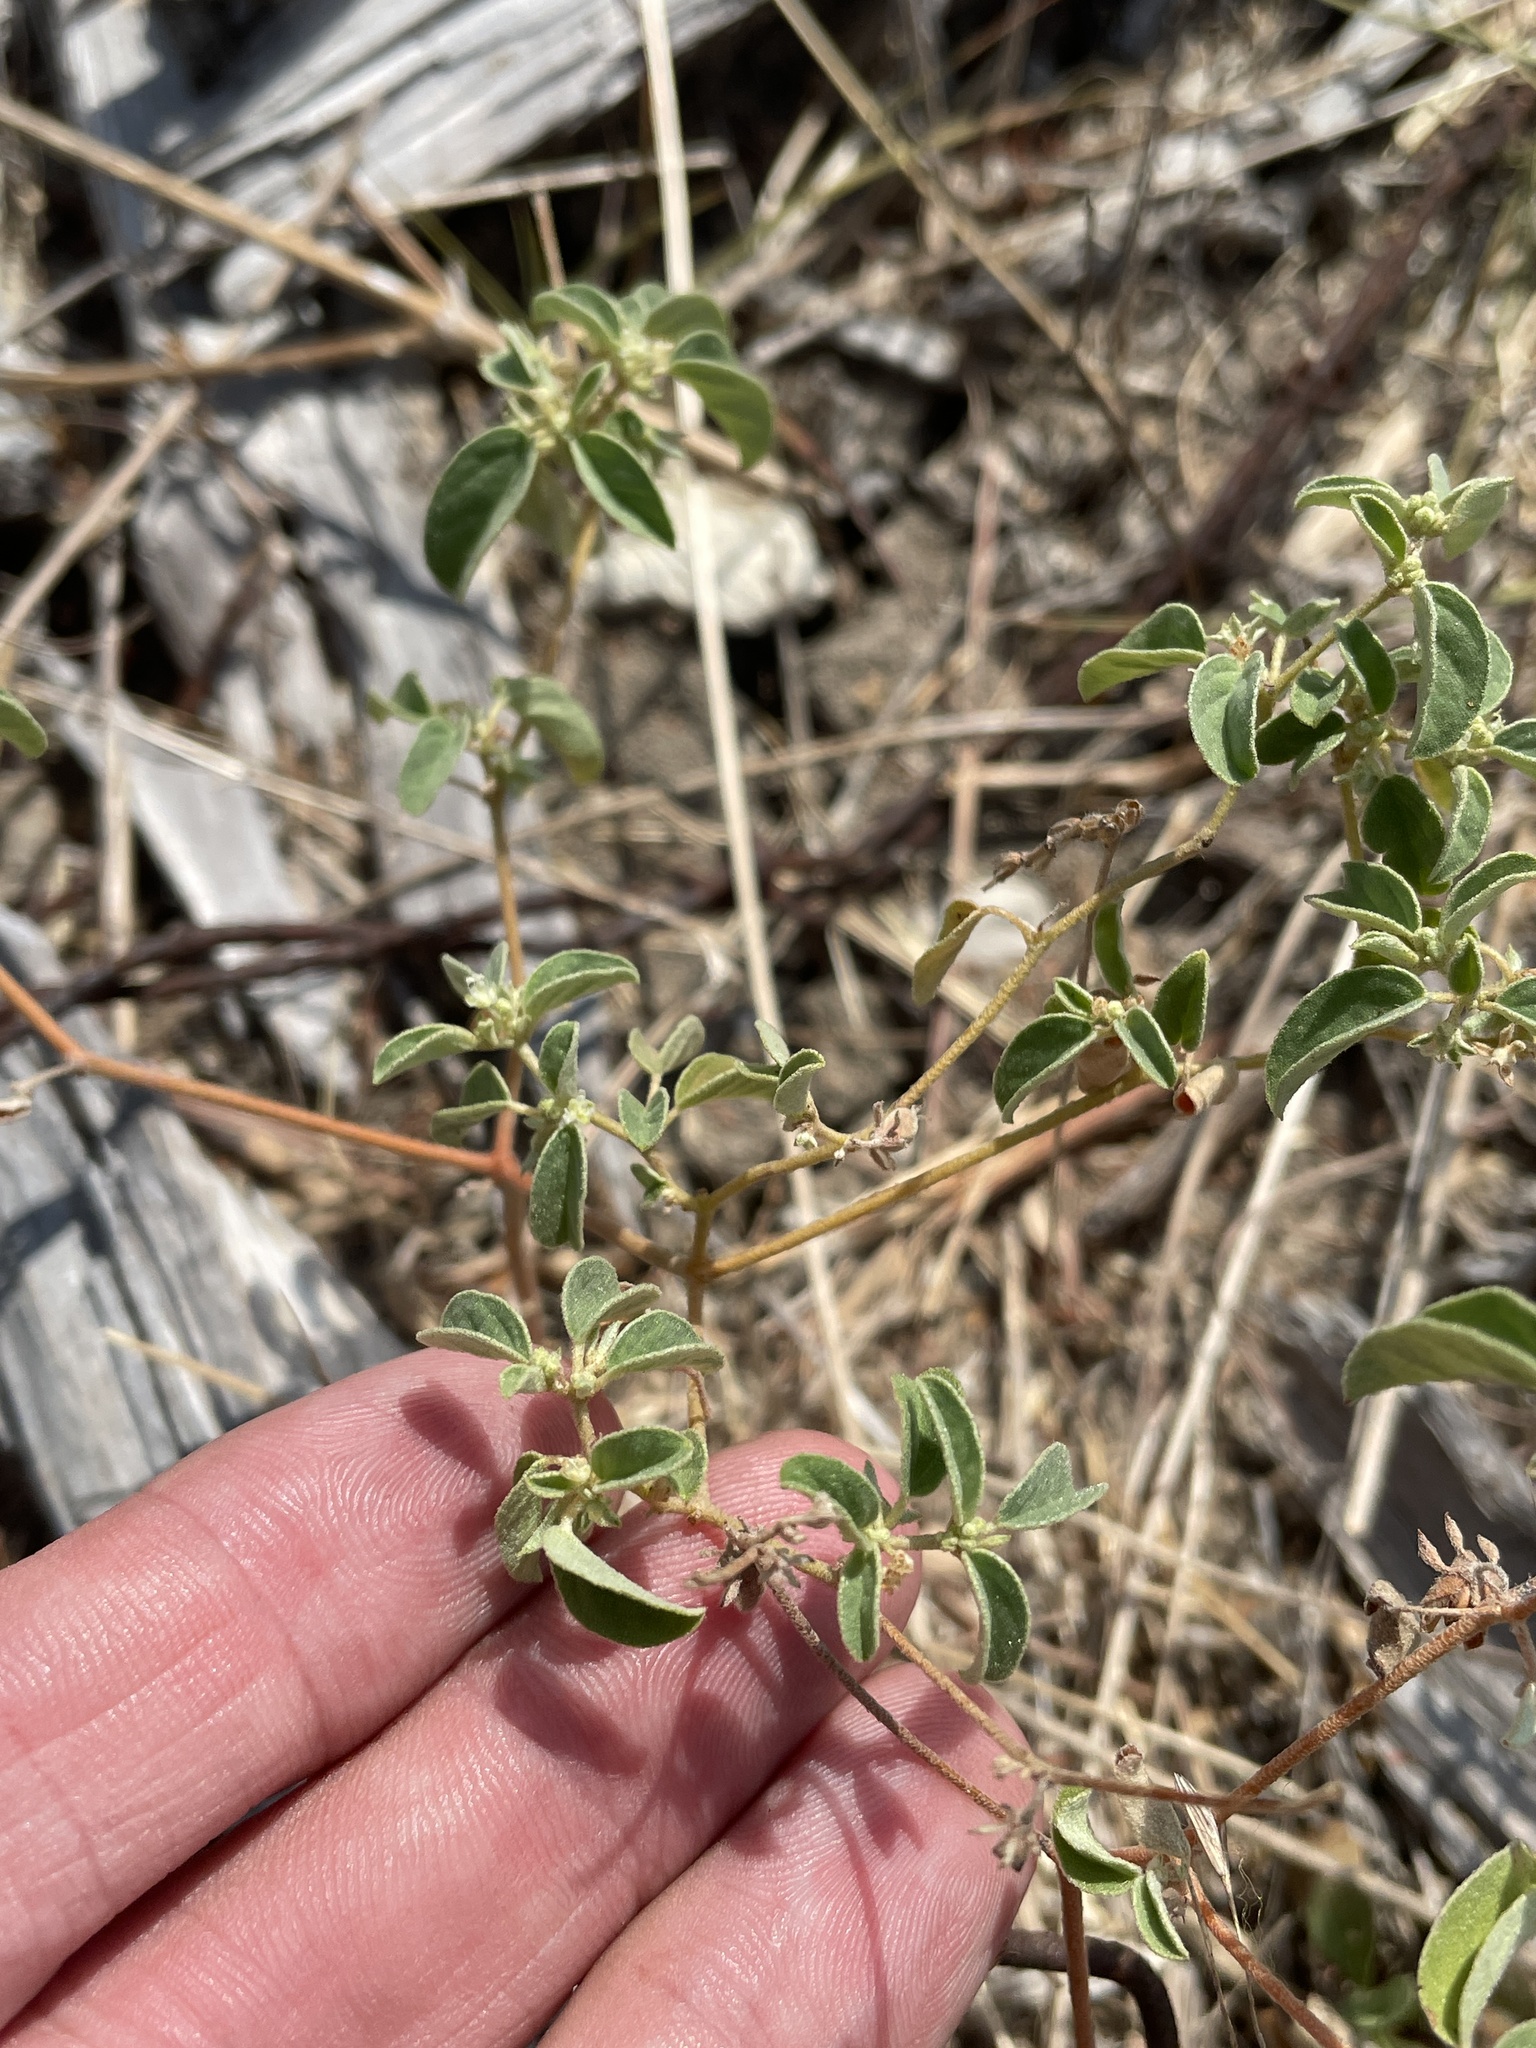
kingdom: Plantae
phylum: Tracheophyta
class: Magnoliopsida
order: Malpighiales
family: Euphorbiaceae
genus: Croton
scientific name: Croton monanthogynus
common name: One-seed croton
